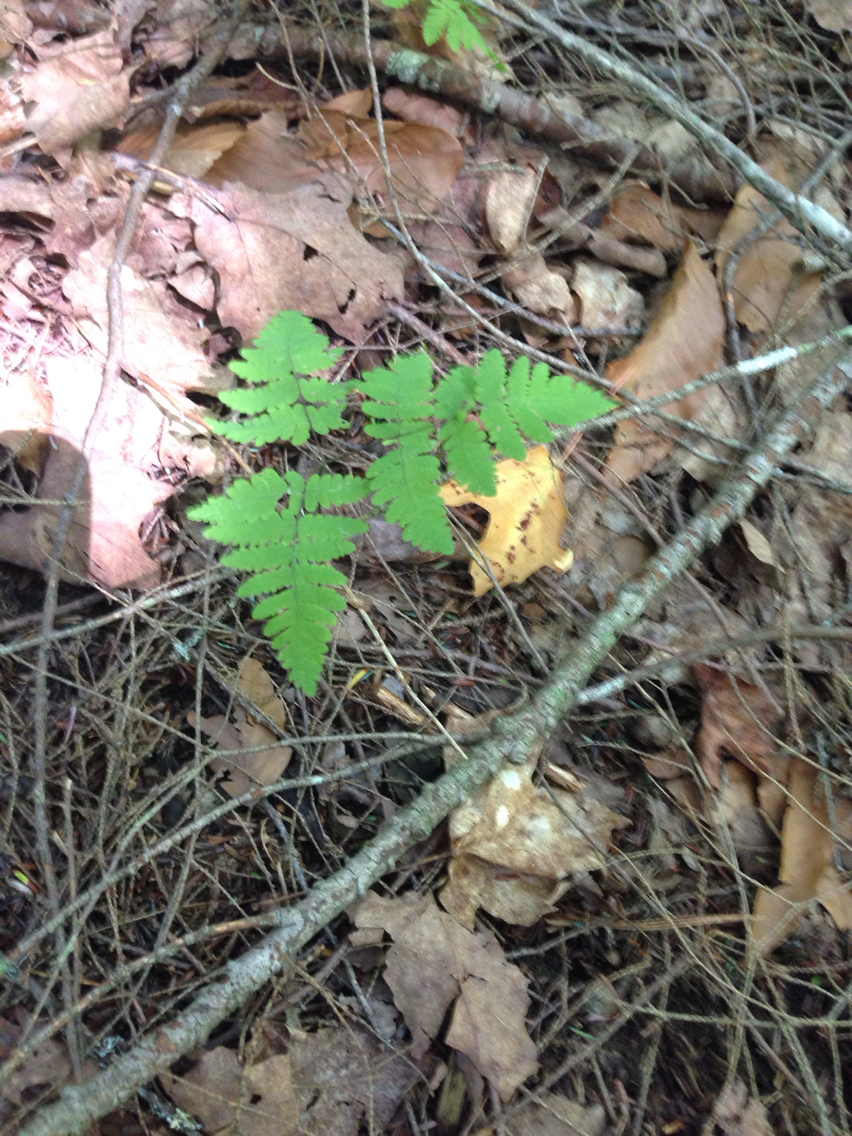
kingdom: Plantae
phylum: Tracheophyta
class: Polypodiopsida
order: Polypodiales
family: Cystopteridaceae
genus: Gymnocarpium
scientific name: Gymnocarpium dryopteris
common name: Oak fern
